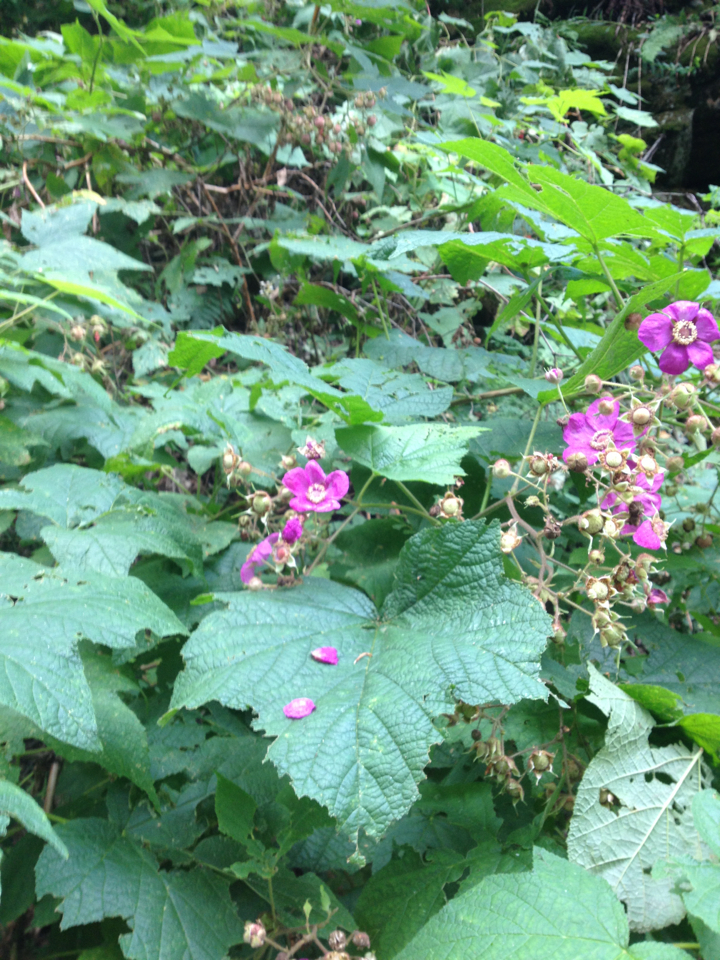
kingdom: Plantae
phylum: Tracheophyta
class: Magnoliopsida
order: Rosales
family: Rosaceae
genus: Rubus
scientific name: Rubus odoratus
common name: Purple-flowered raspberry
